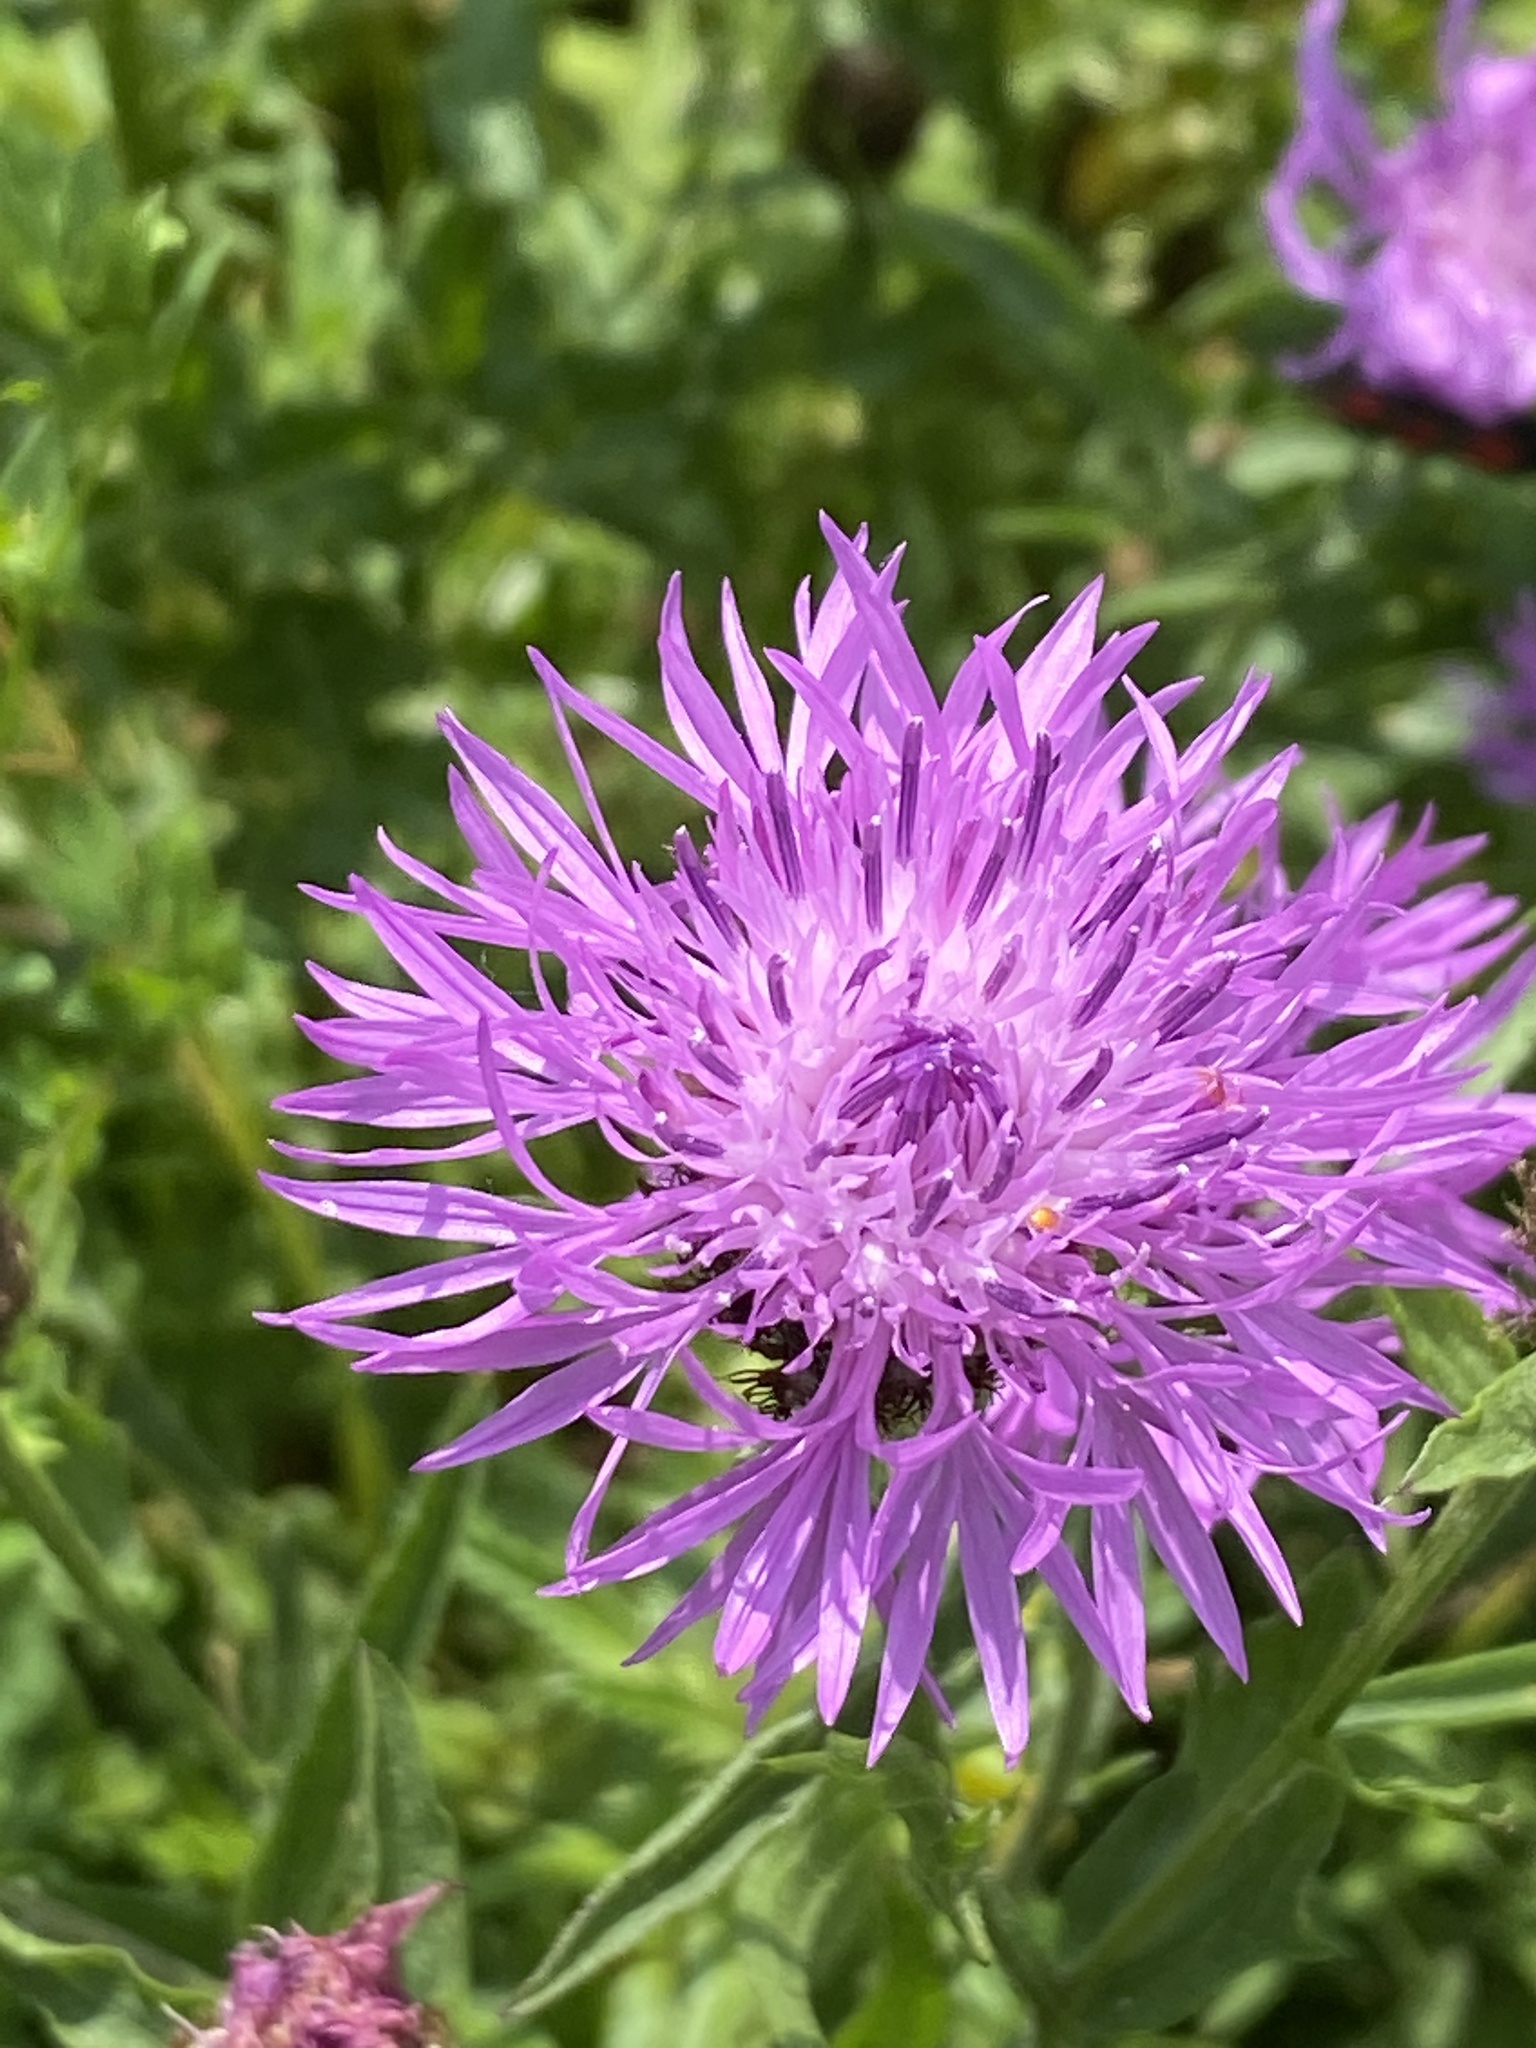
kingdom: Plantae
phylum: Tracheophyta
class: Magnoliopsida
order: Asterales
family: Asteraceae
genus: Centaurea
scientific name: Centaurea jacea
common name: Brown knapweed
